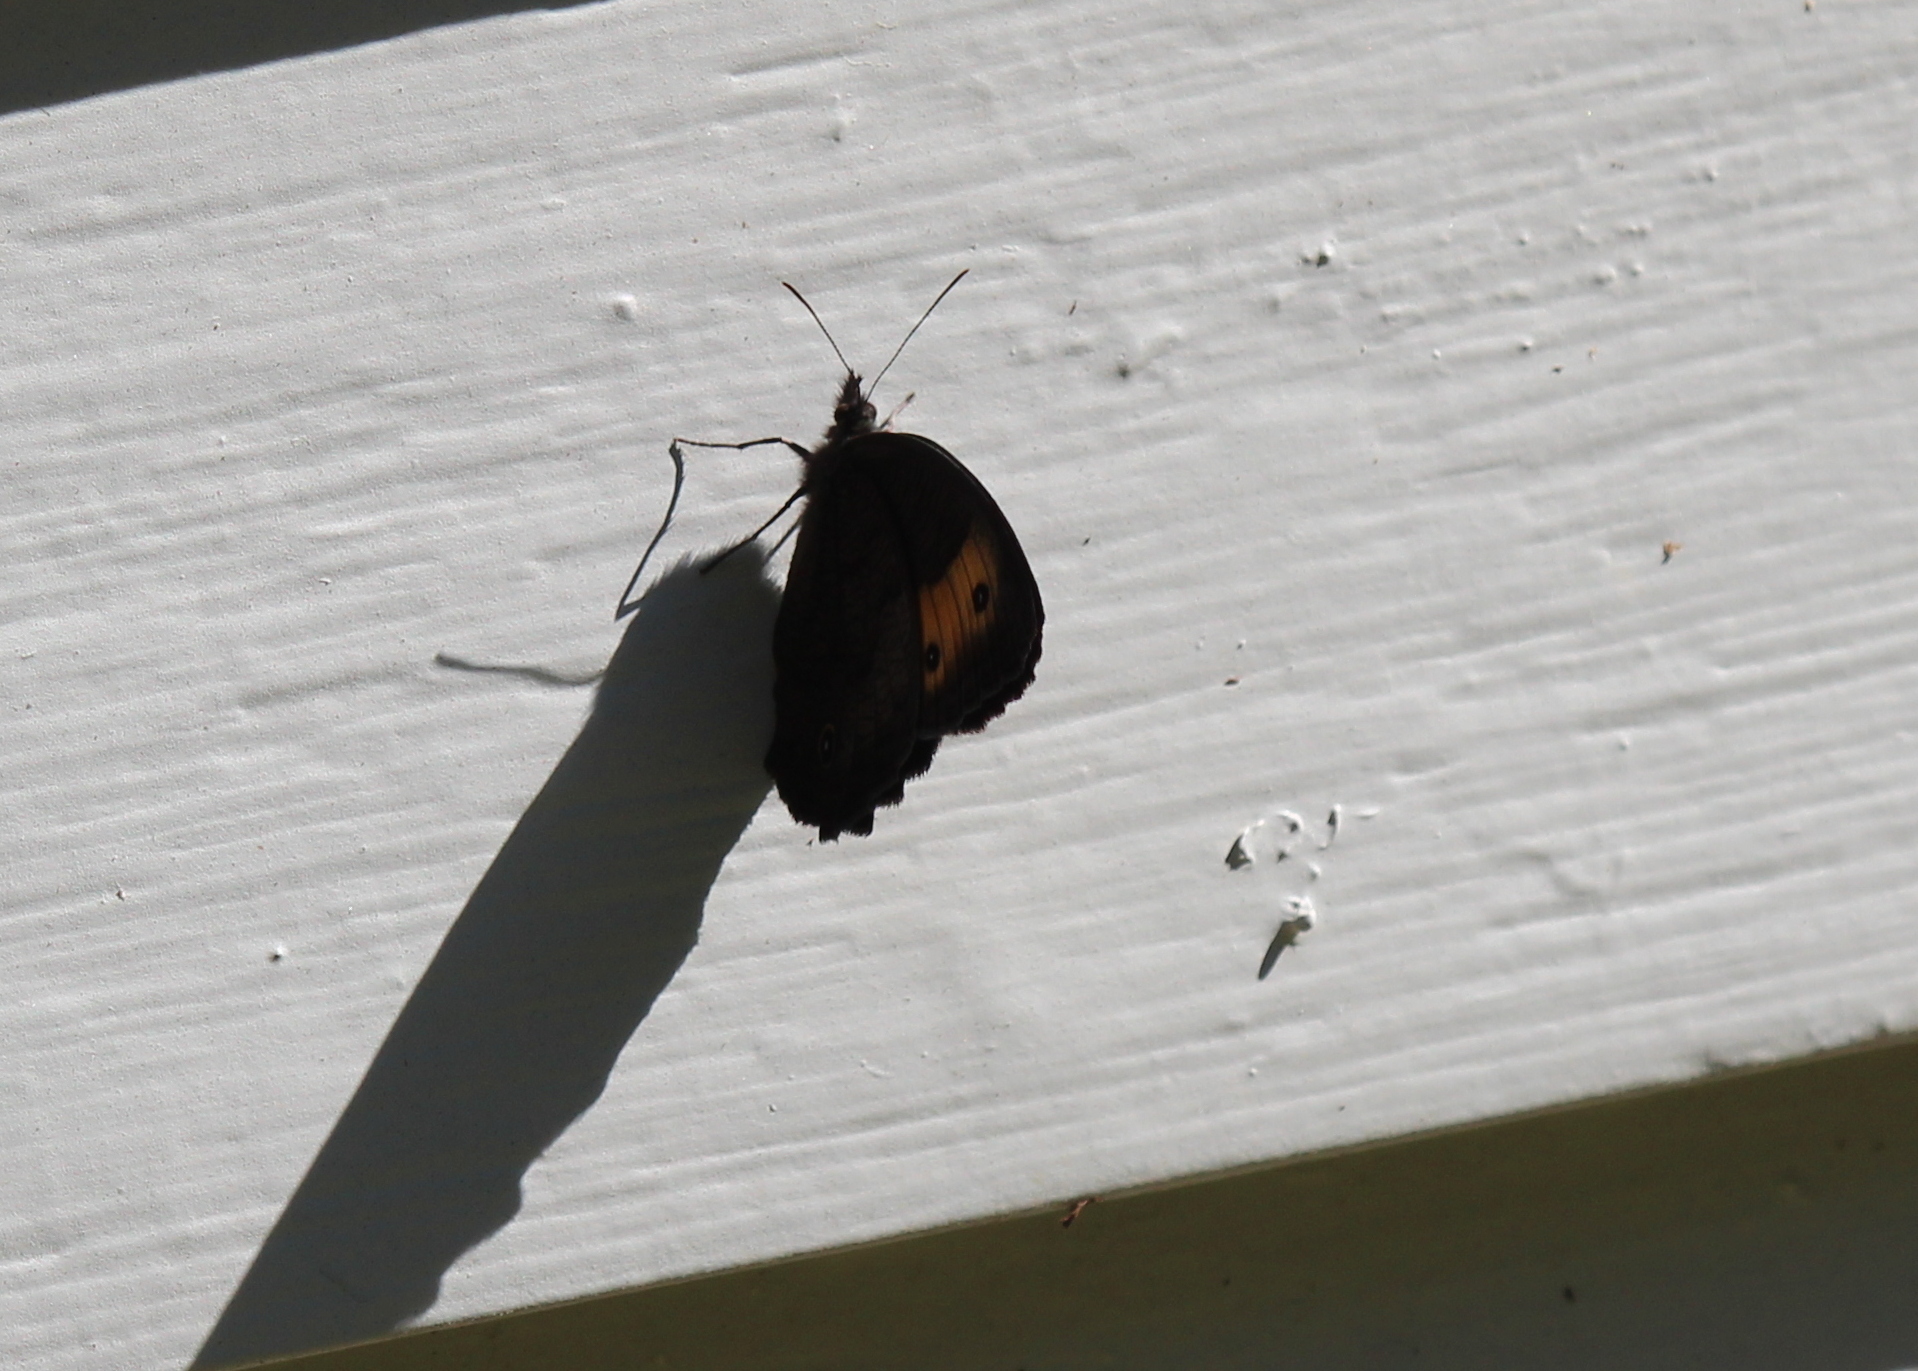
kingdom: Animalia
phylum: Arthropoda
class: Insecta
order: Lepidoptera
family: Nymphalidae
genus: Cercyonis
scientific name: Cercyonis pegala
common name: Common wood-nymph
